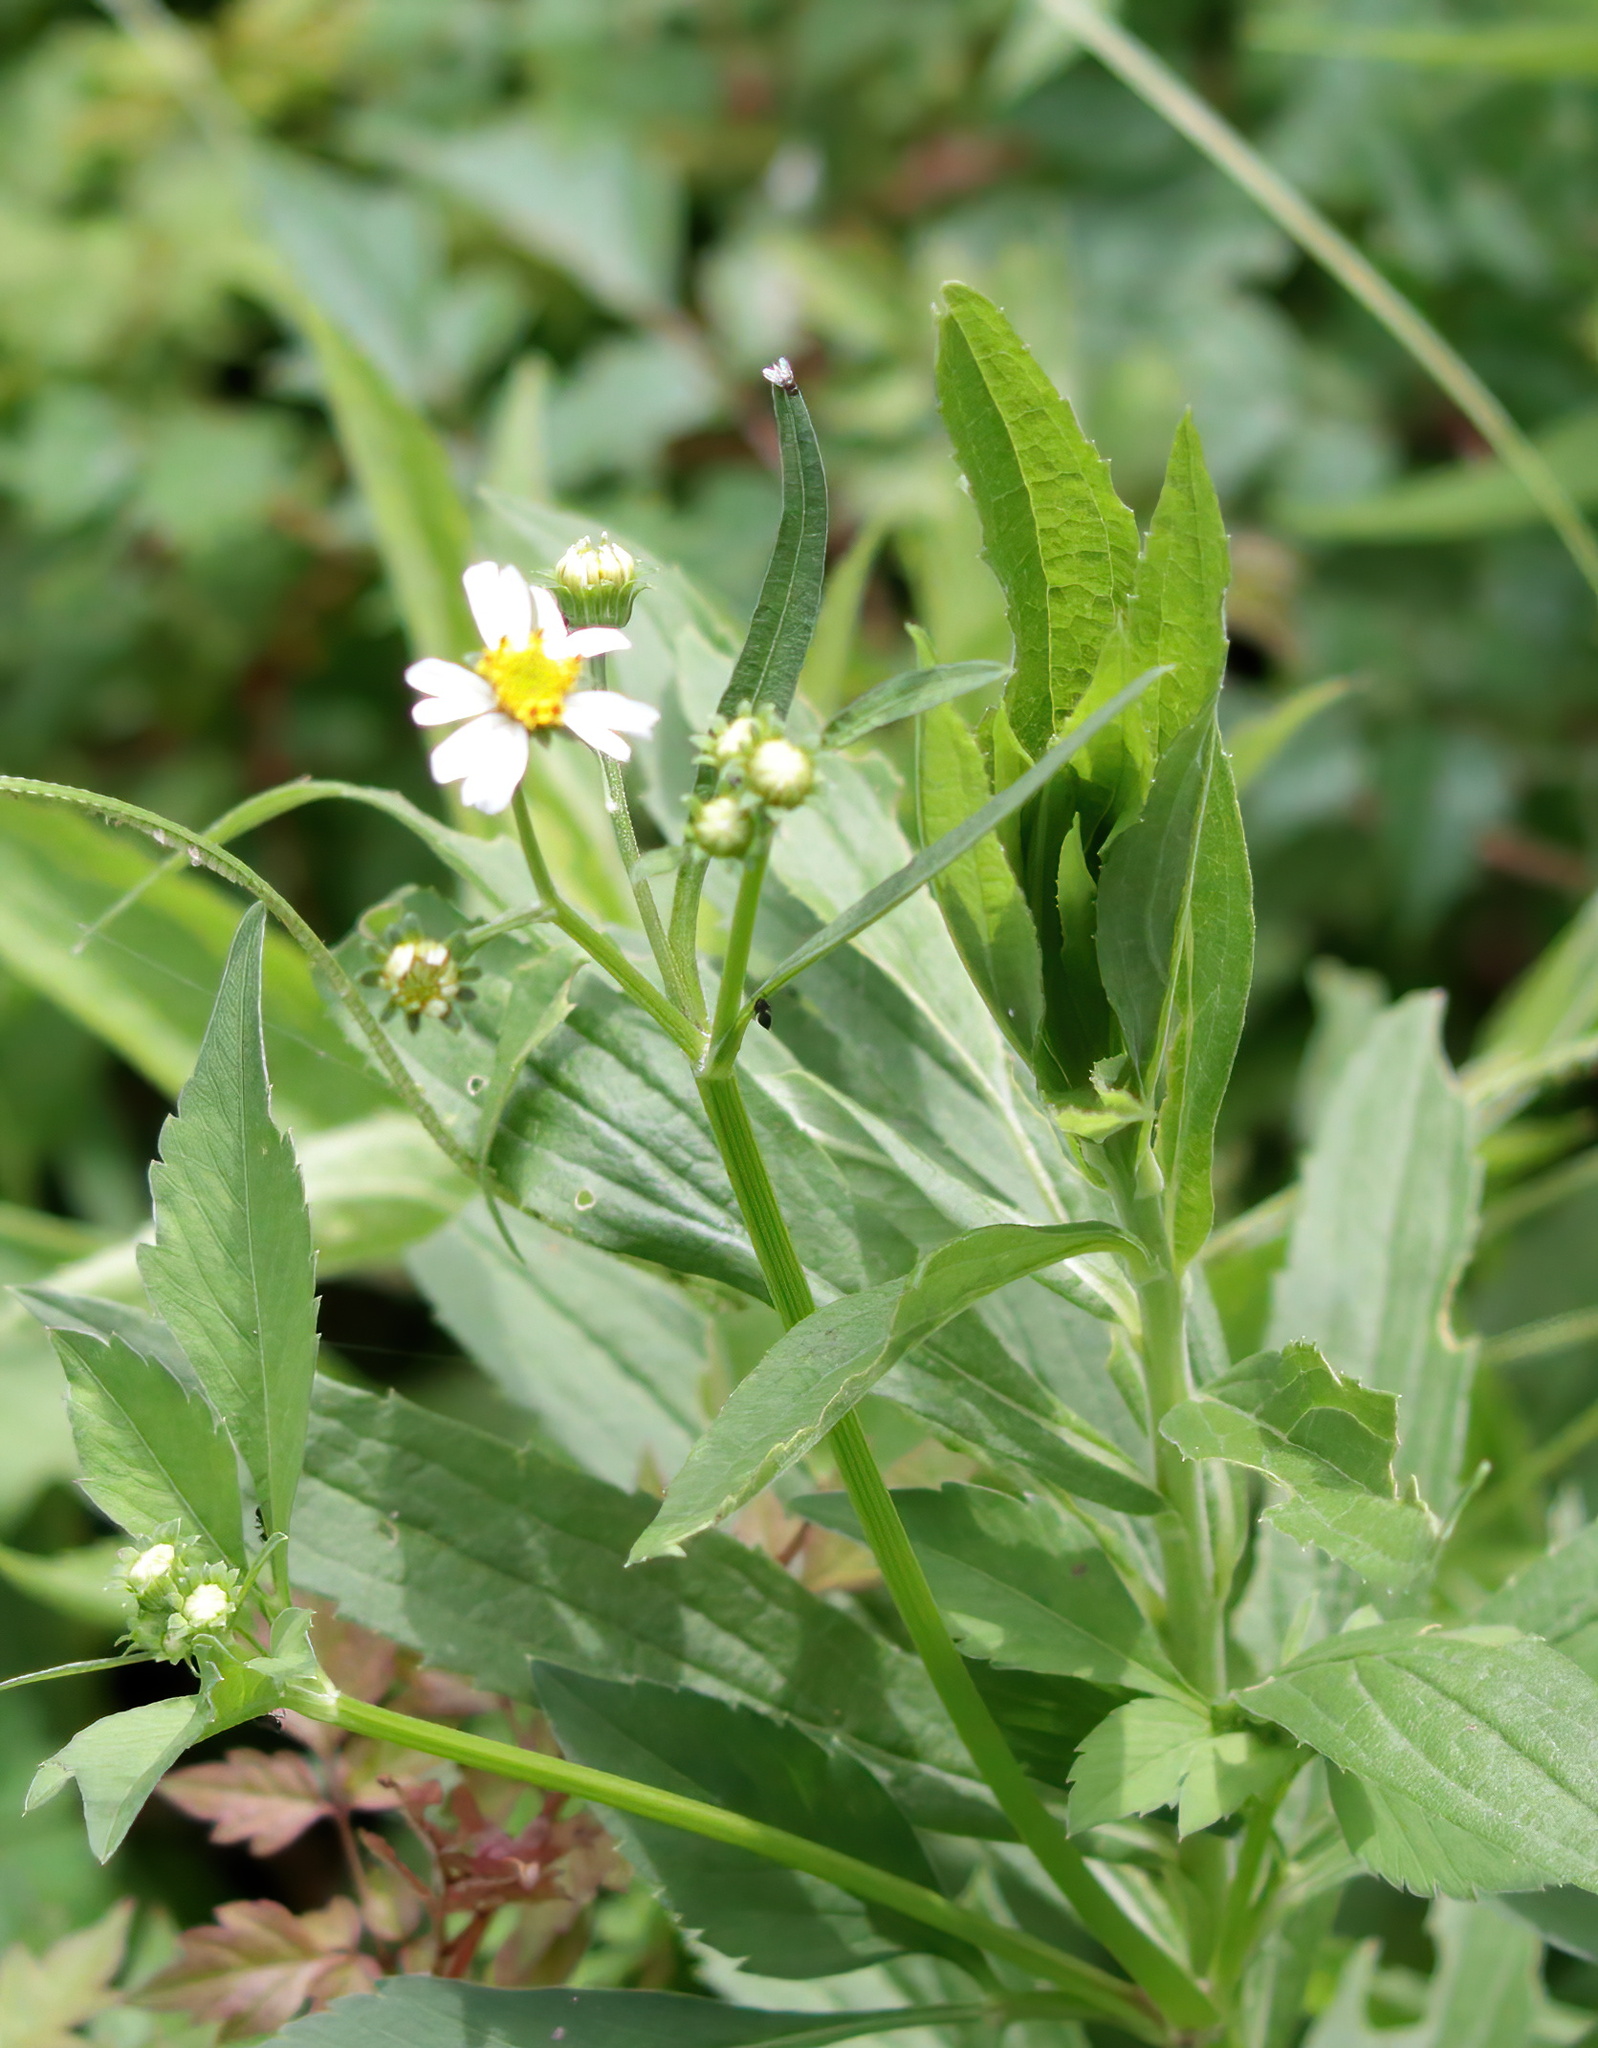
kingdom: Plantae
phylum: Tracheophyta
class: Magnoliopsida
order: Asterales
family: Asteraceae
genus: Bidens
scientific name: Bidens alba
